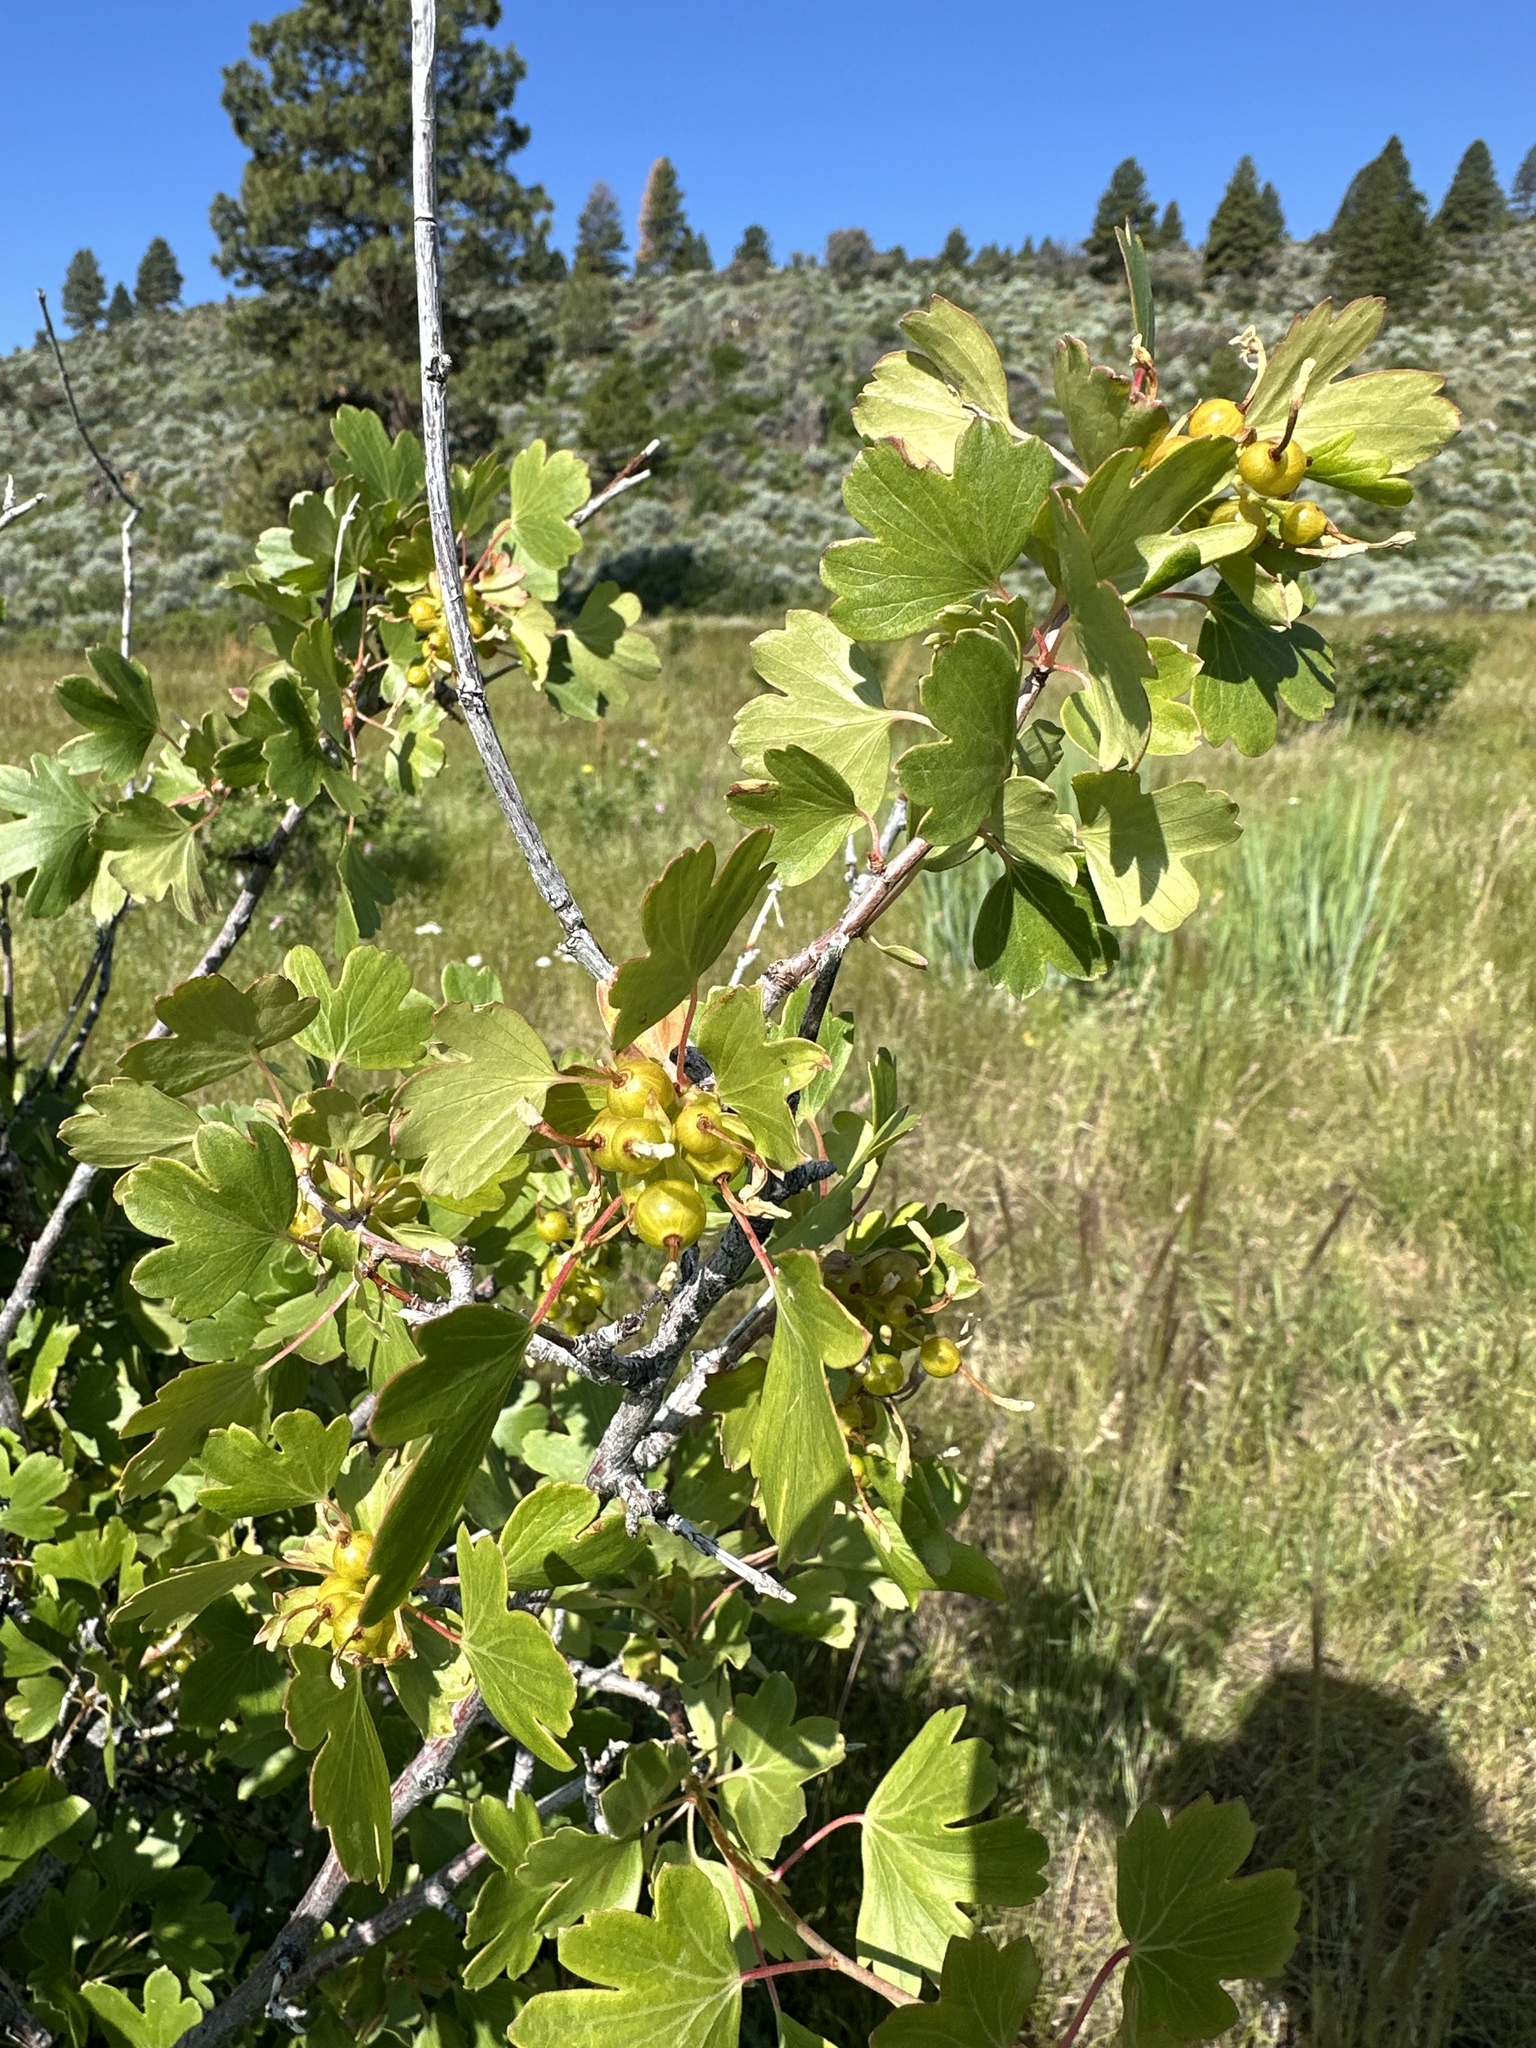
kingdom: Plantae
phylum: Tracheophyta
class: Magnoliopsida
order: Saxifragales
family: Grossulariaceae
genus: Ribes
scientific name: Ribes aureum
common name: Golden currant
